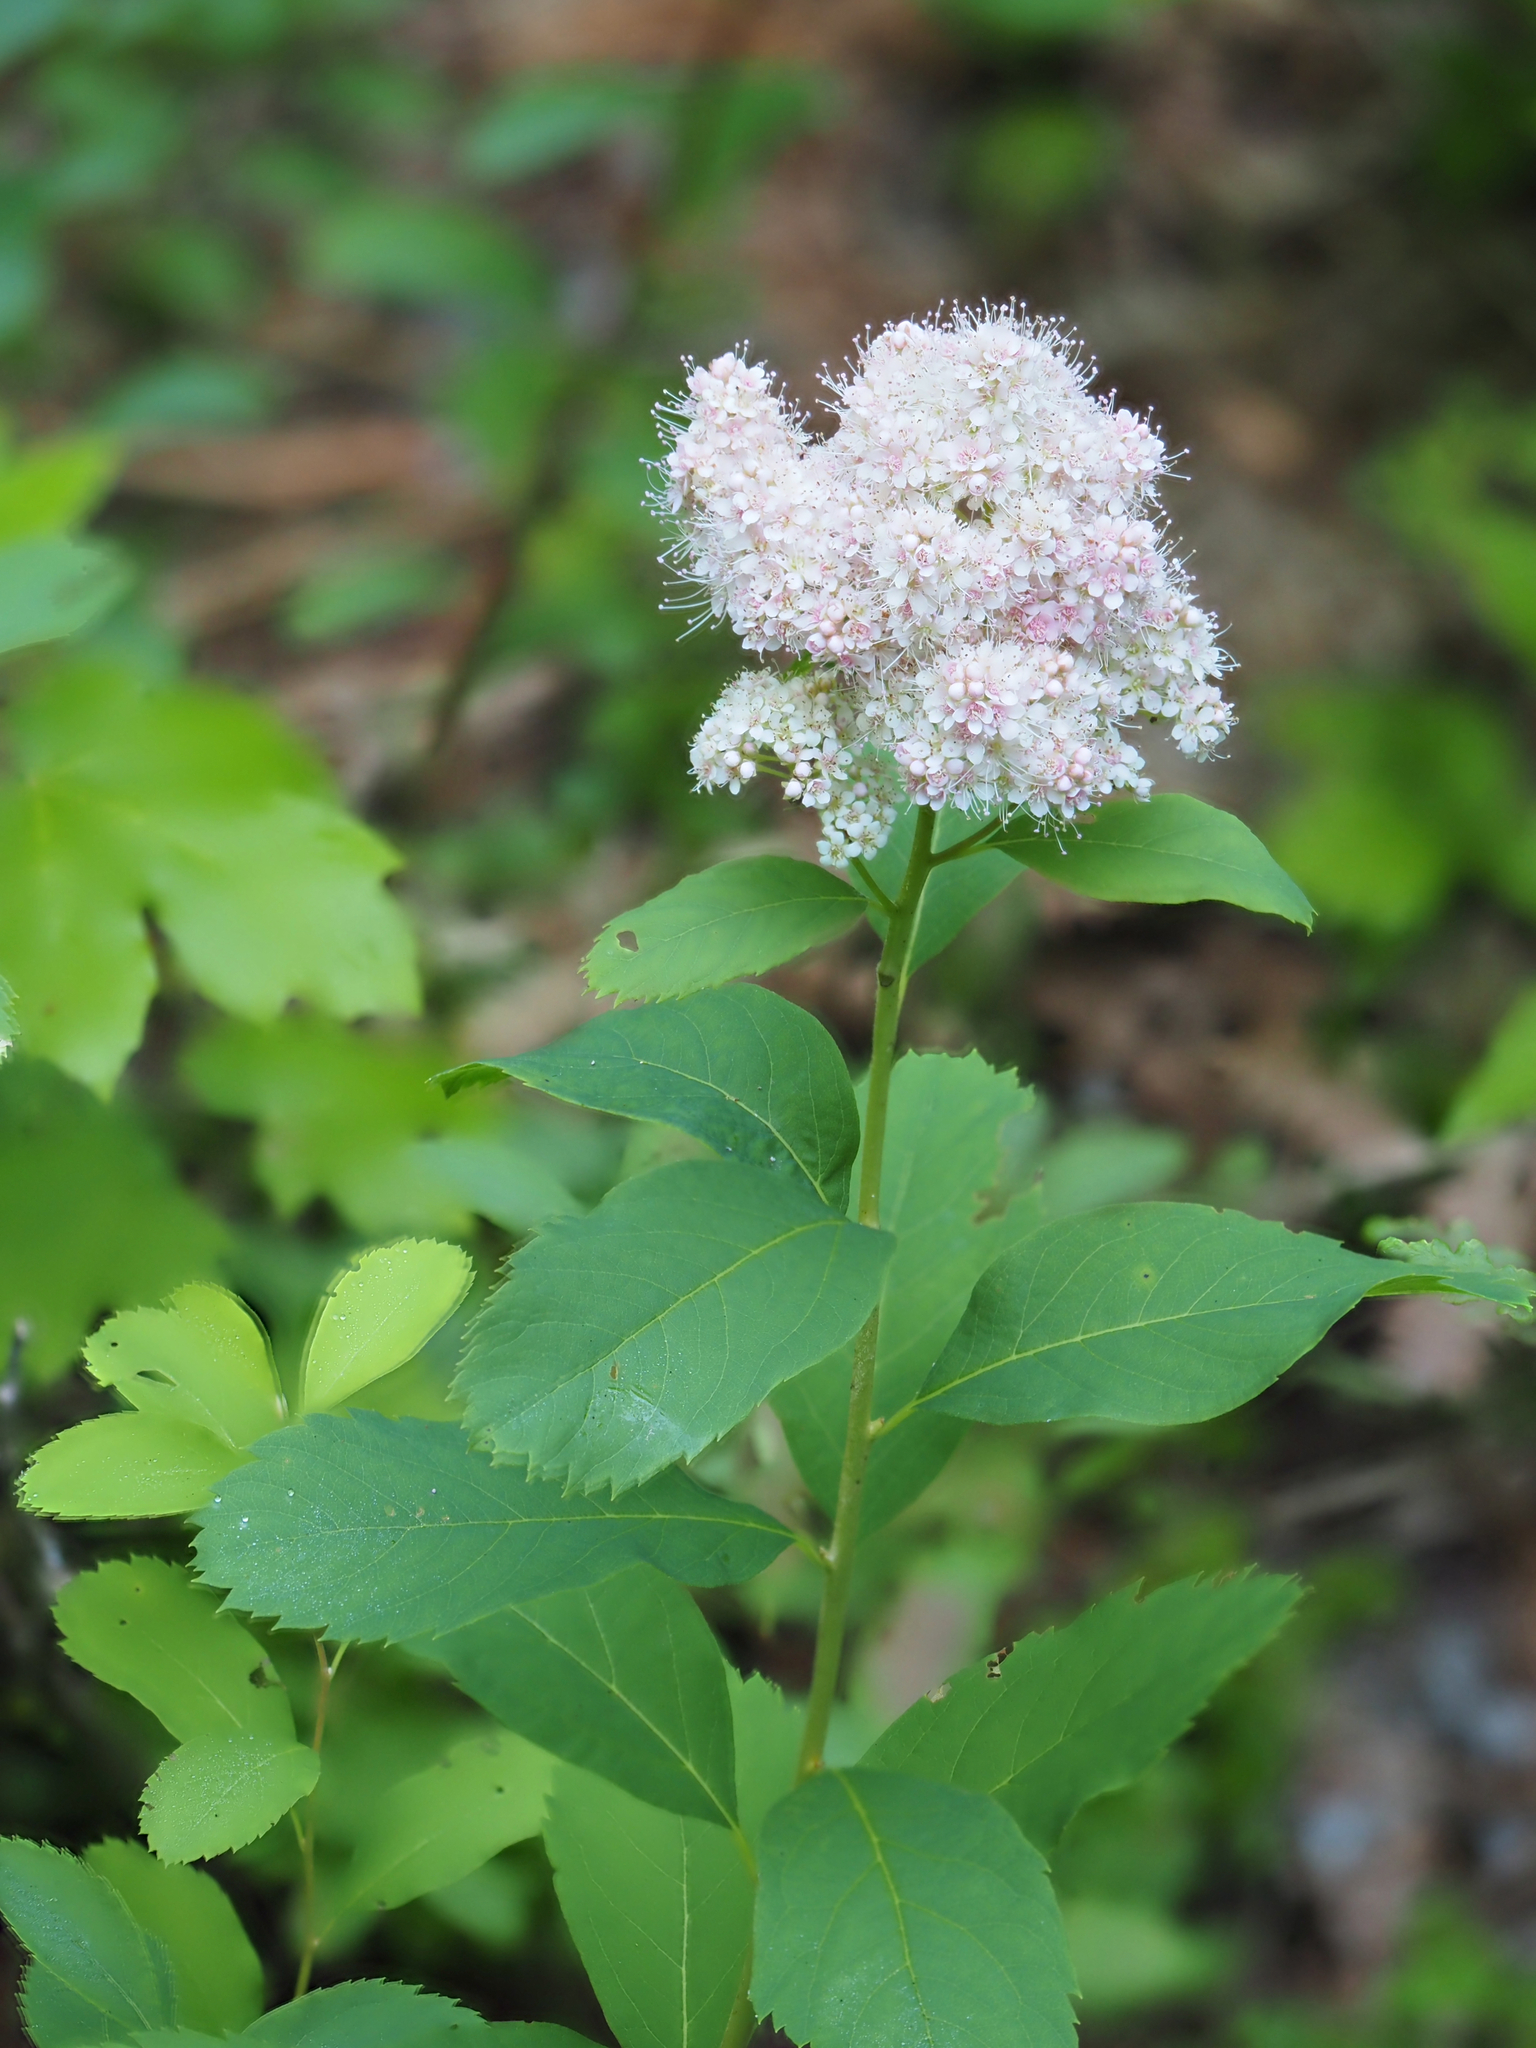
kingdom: Plantae
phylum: Tracheophyta
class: Magnoliopsida
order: Rosales
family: Rosaceae
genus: Spiraea
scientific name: Spiraea pyramidata
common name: Pyramid meadowsweet
